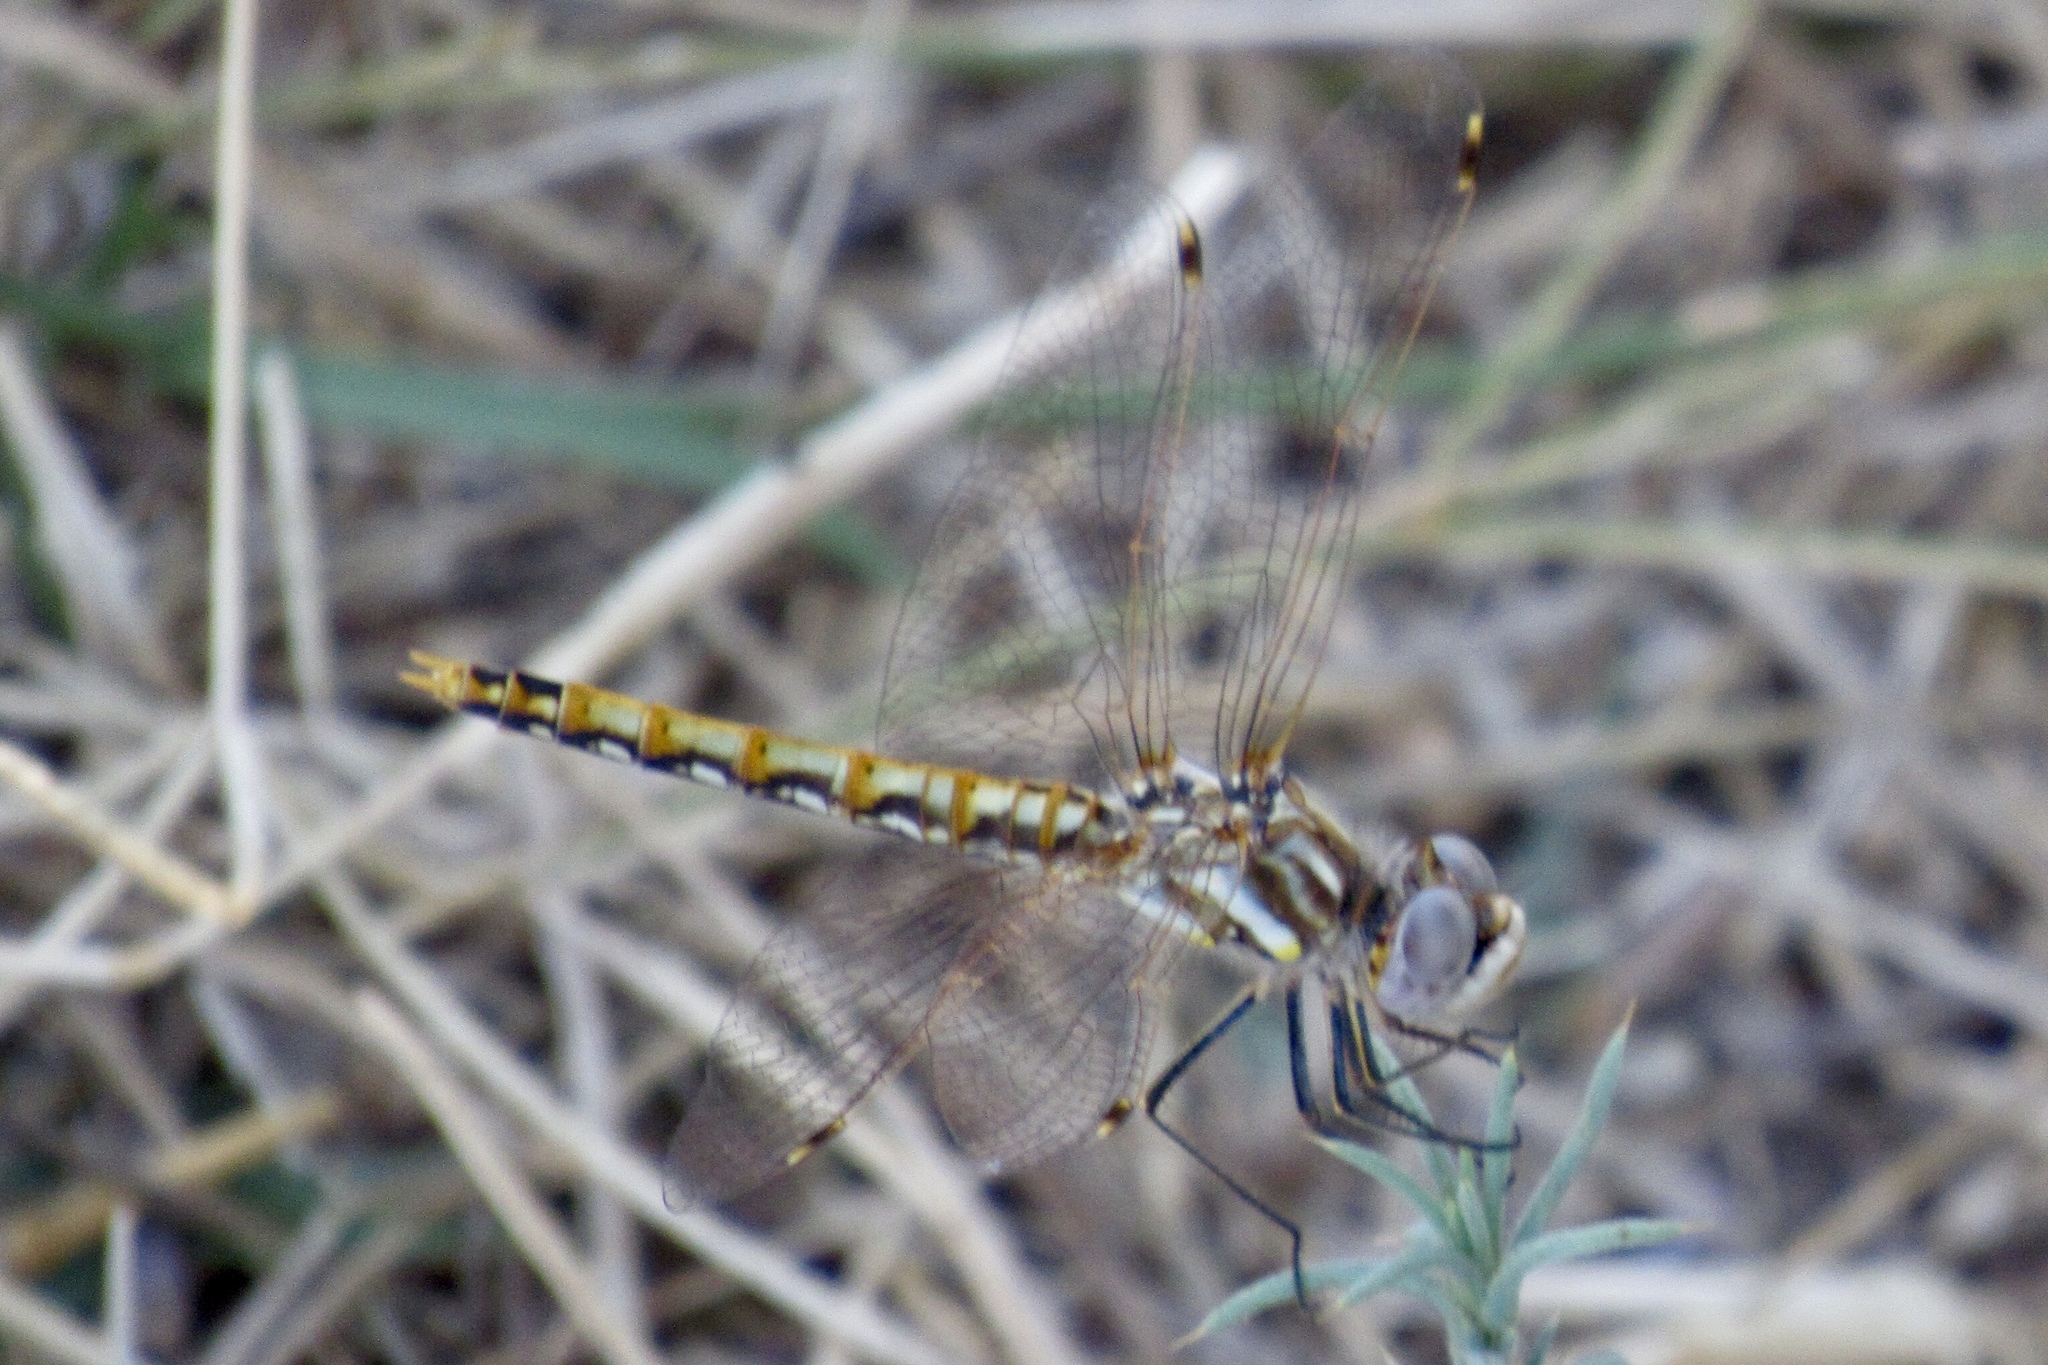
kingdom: Animalia
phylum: Arthropoda
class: Insecta
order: Odonata
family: Libellulidae
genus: Sympetrum
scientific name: Sympetrum corruptum
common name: Variegated meadowhawk
